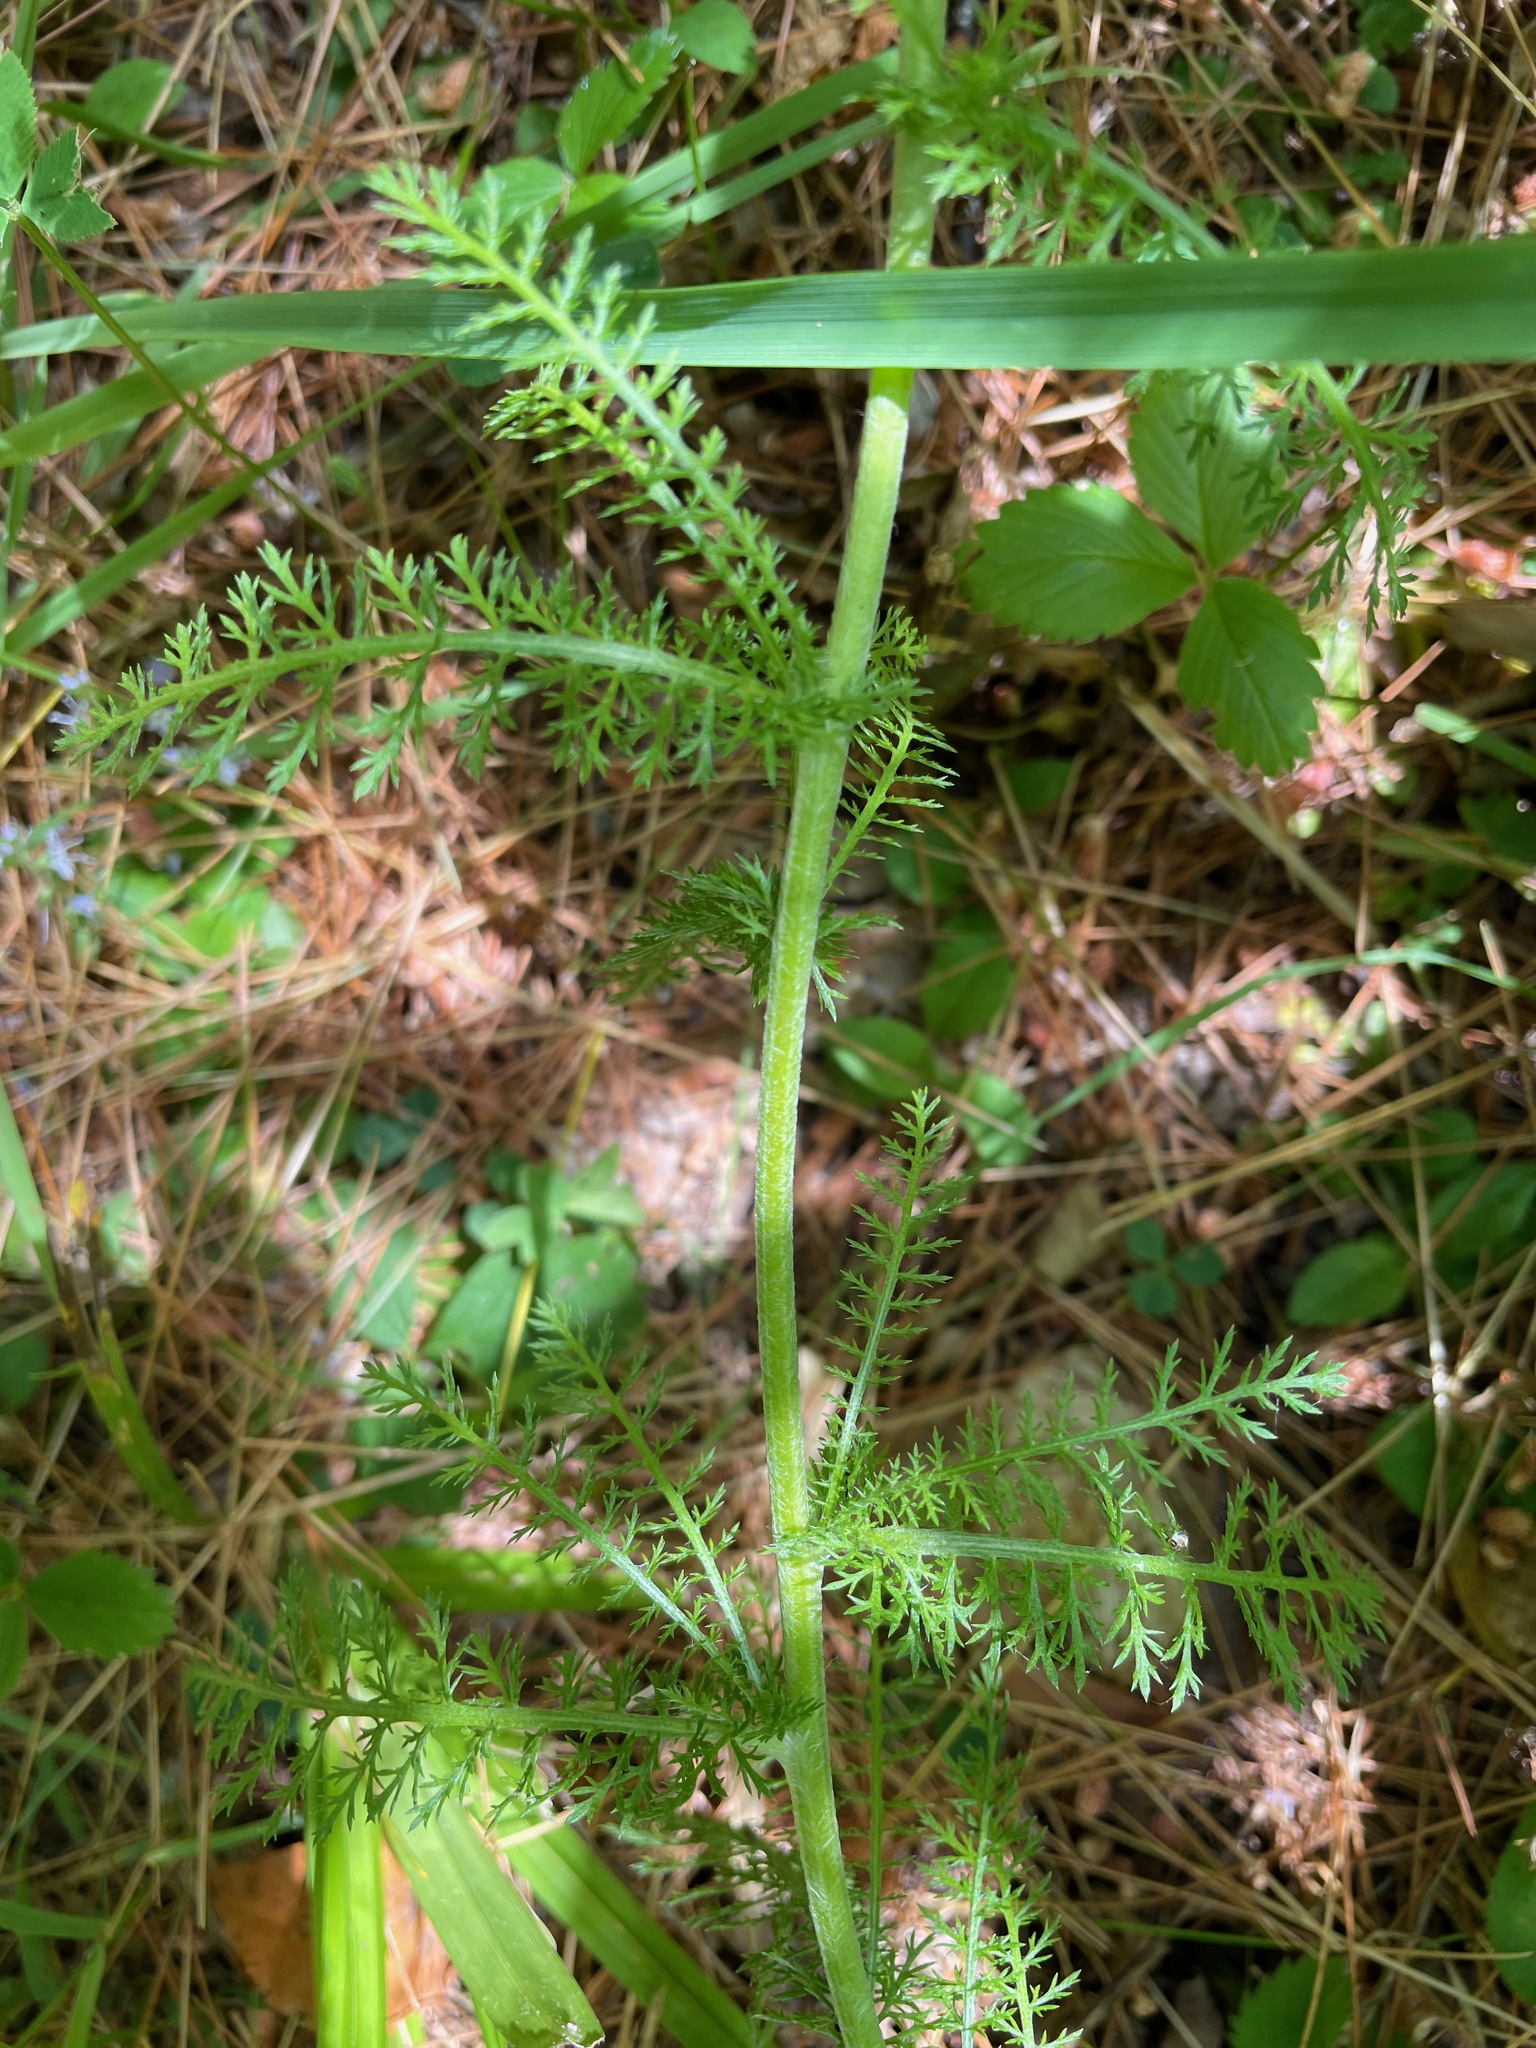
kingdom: Plantae
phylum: Tracheophyta
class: Magnoliopsida
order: Asterales
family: Asteraceae
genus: Achillea
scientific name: Achillea millefolium
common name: Yarrow
